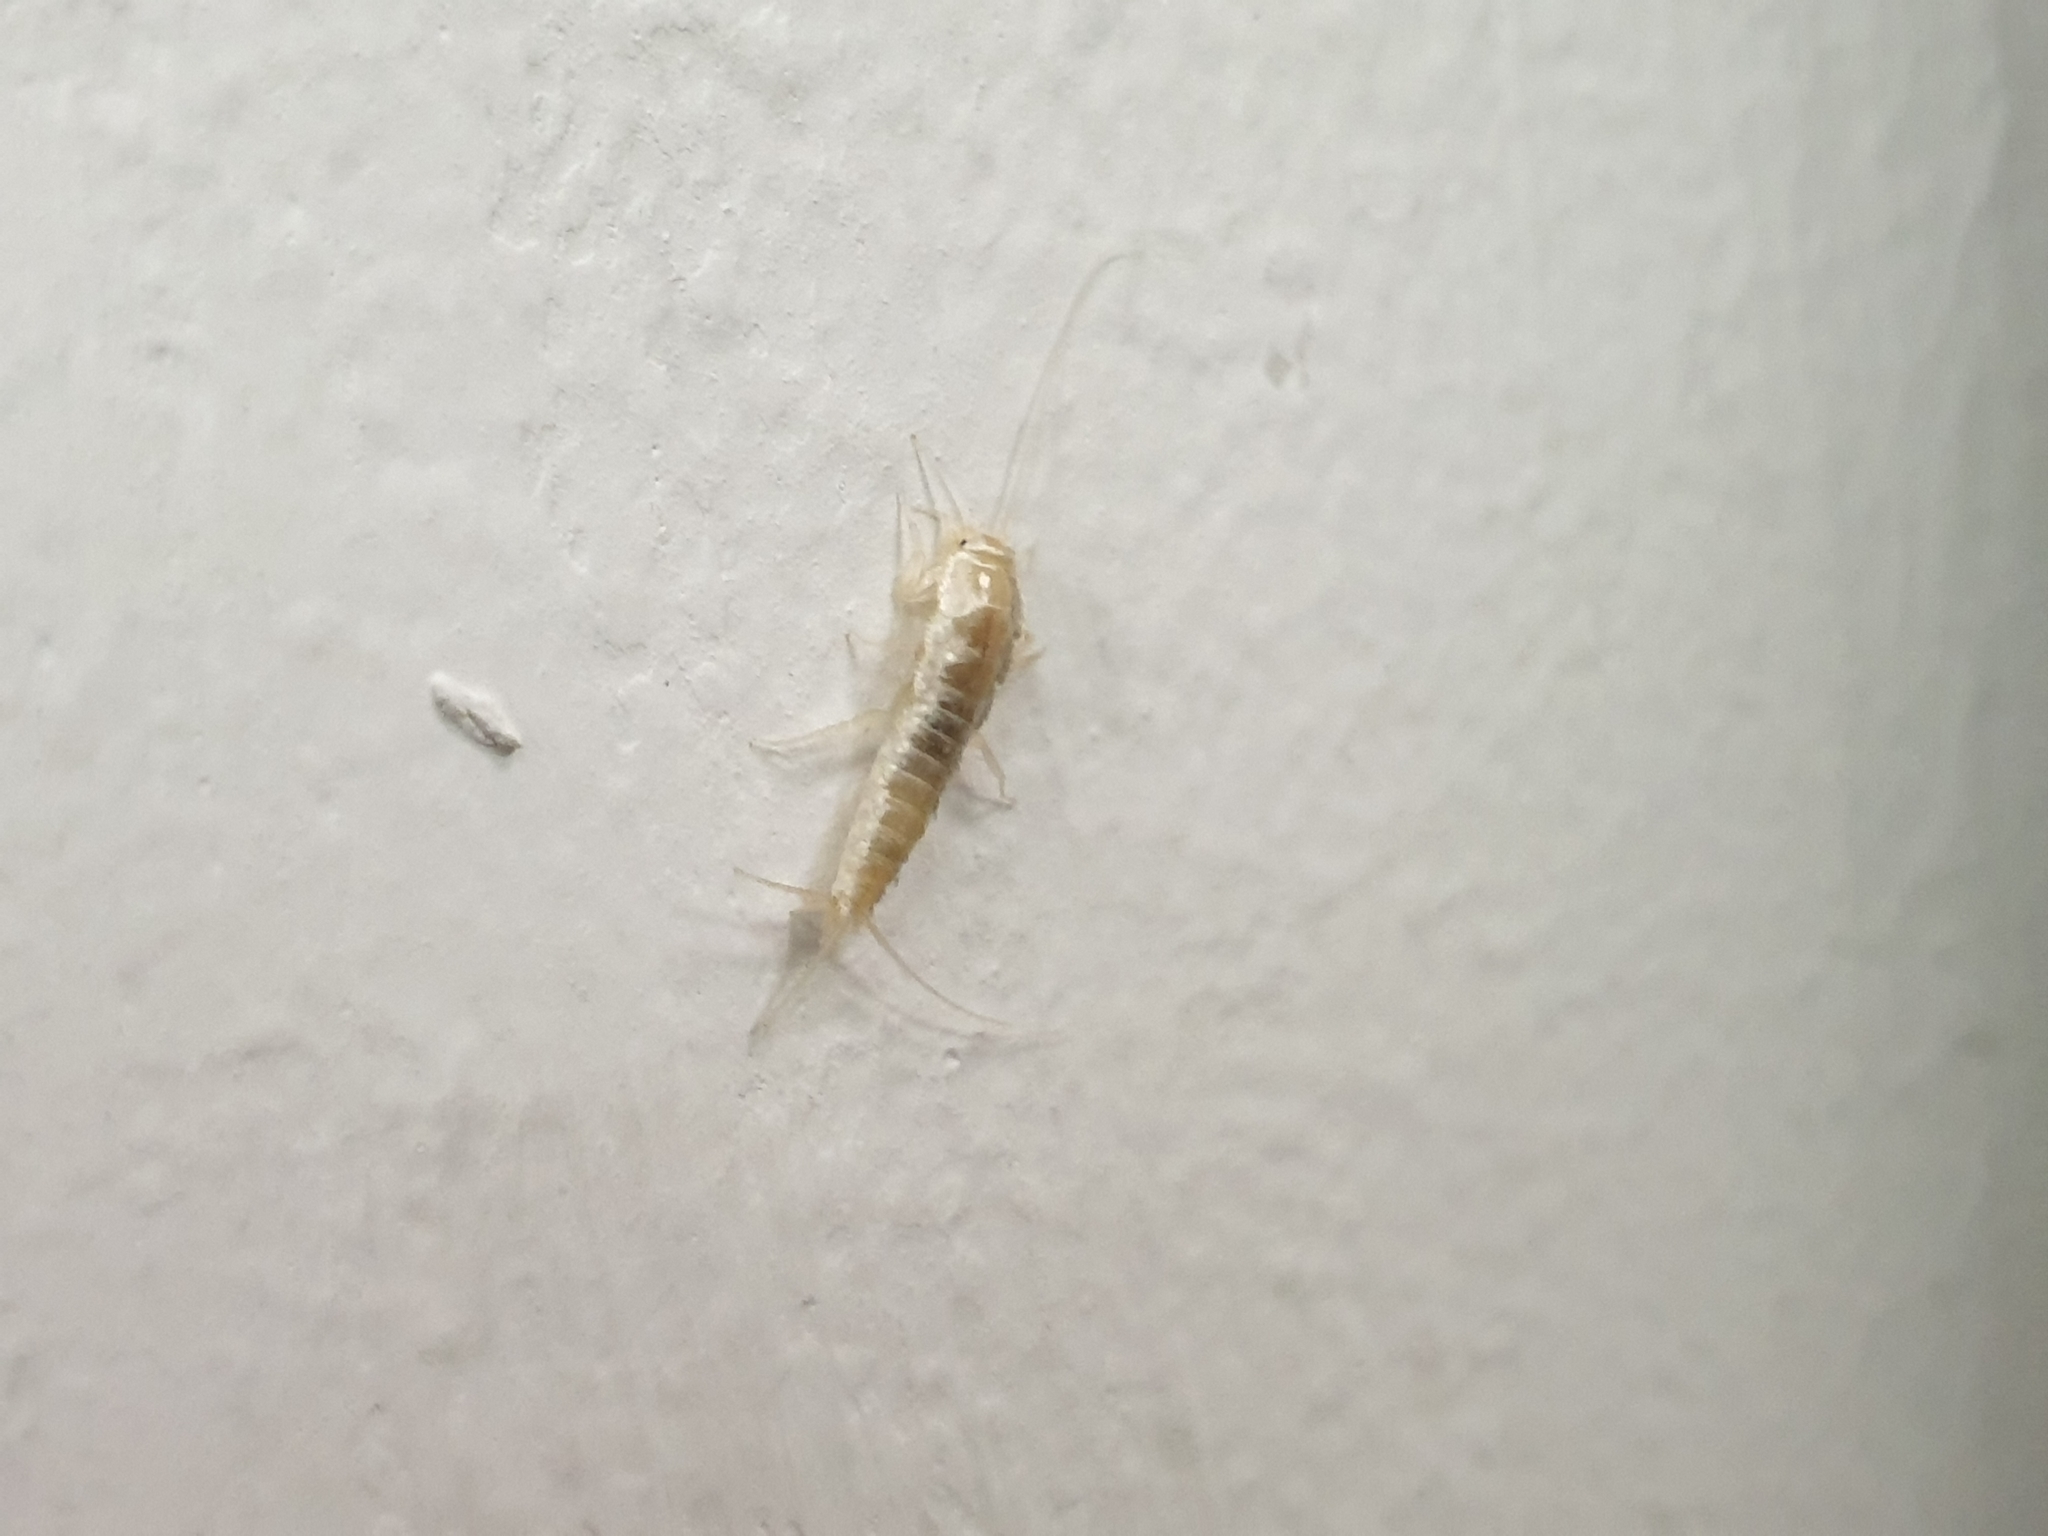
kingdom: Animalia
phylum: Arthropoda
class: Insecta
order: Zygentoma
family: Lepismatidae
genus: Ctenolepisma
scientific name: Ctenolepisma calvum
